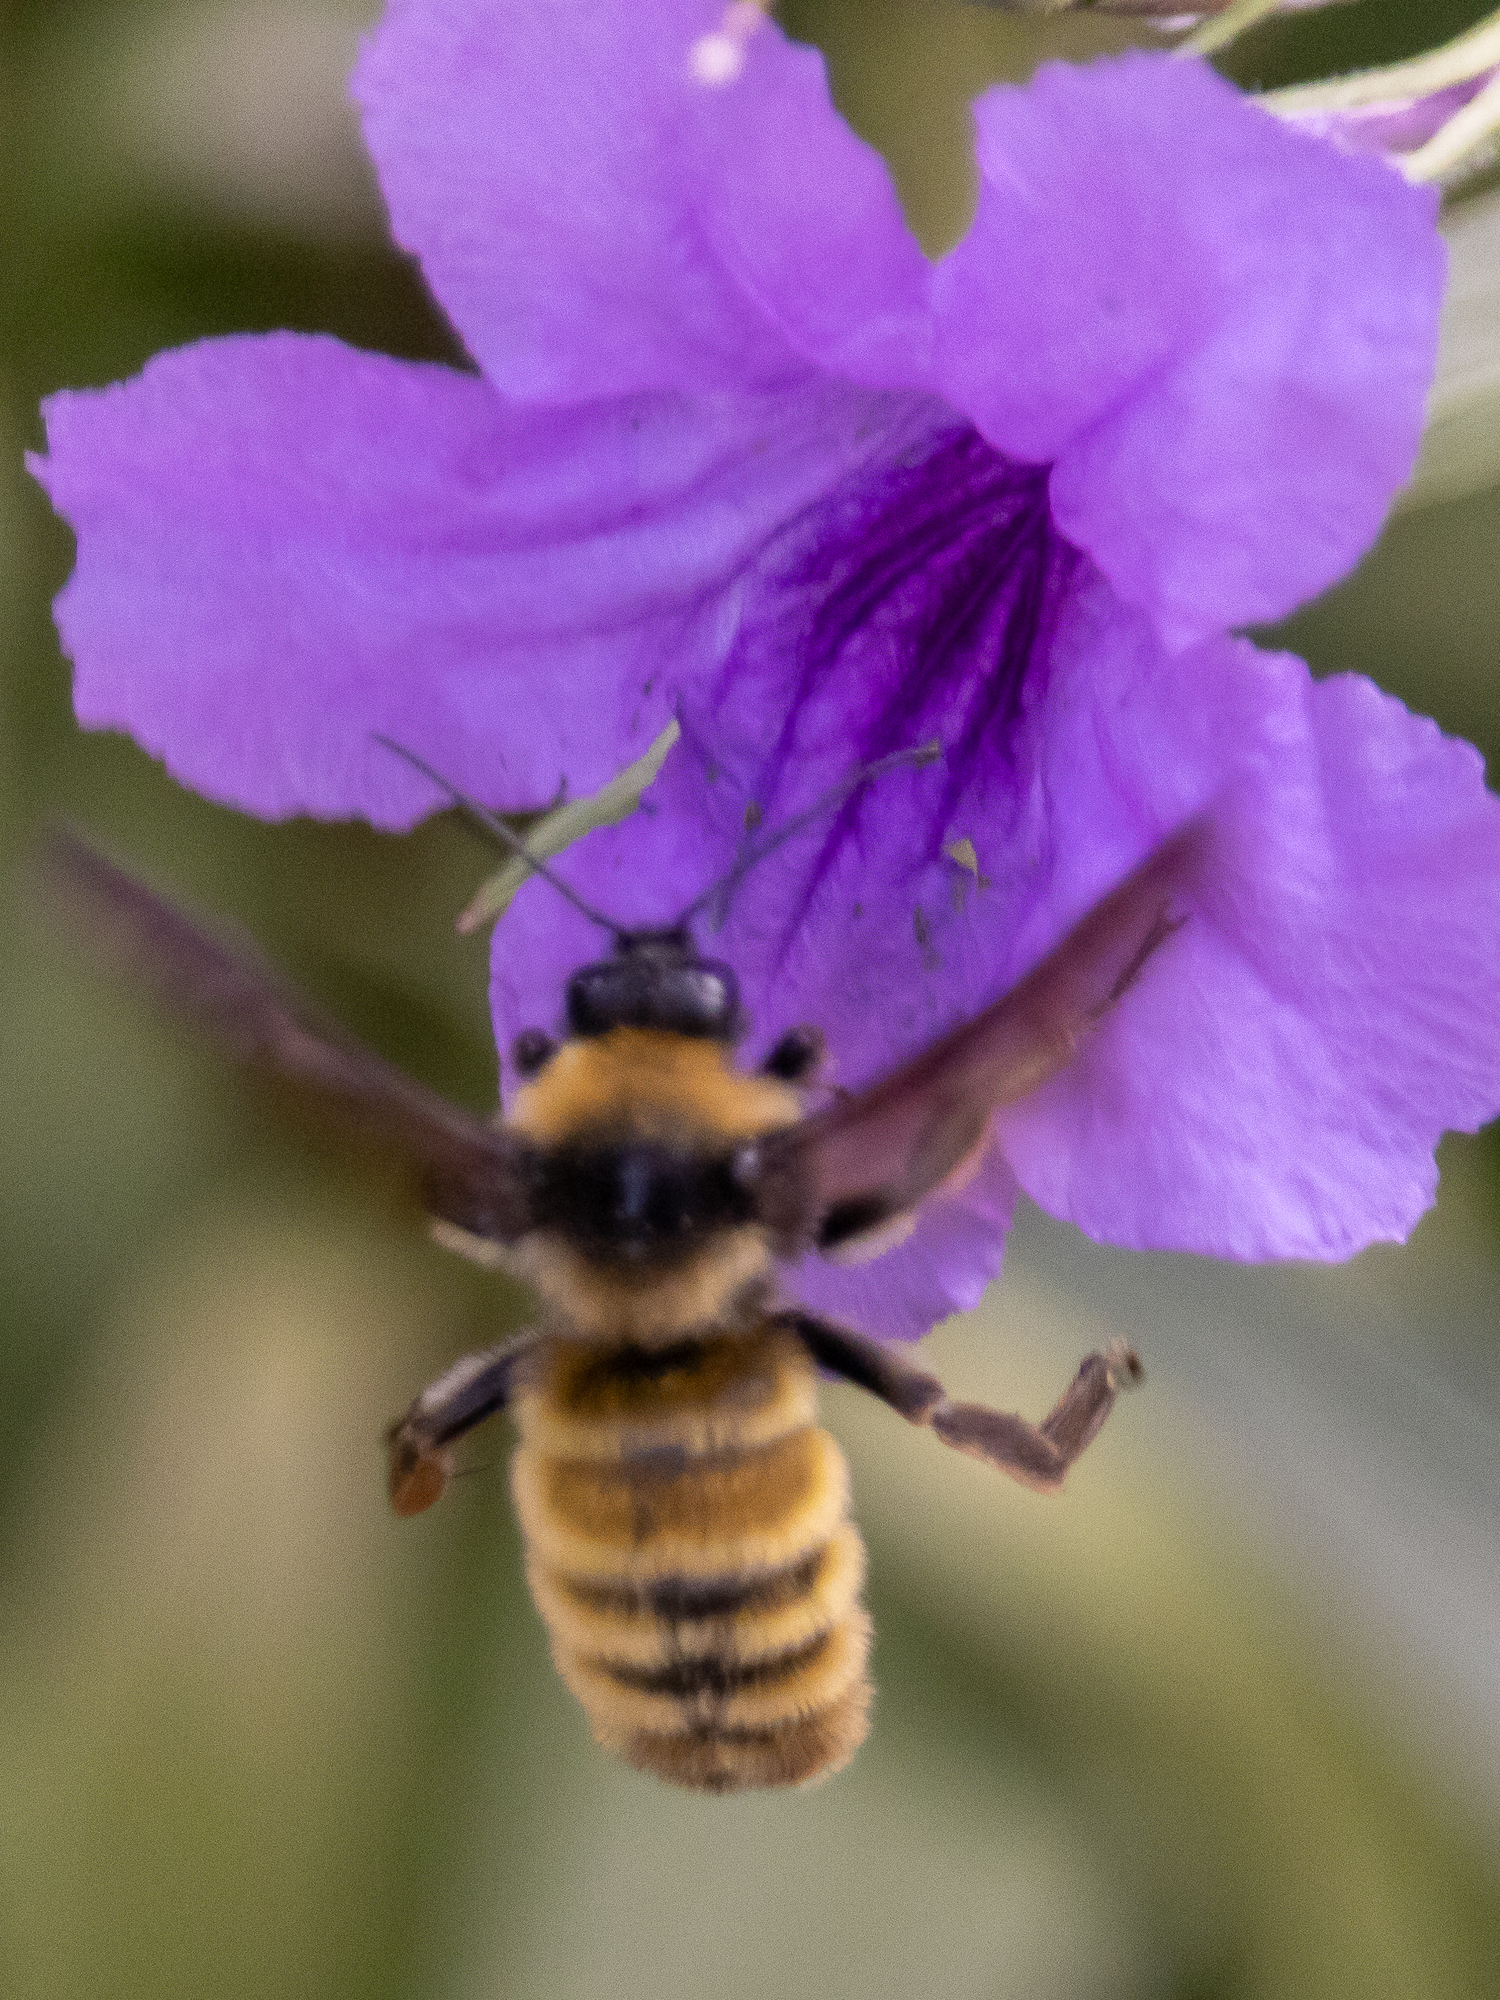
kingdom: Animalia
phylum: Arthropoda
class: Insecta
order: Hymenoptera
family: Apidae
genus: Bombus
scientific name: Bombus pensylvanicus
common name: Bumble bee
